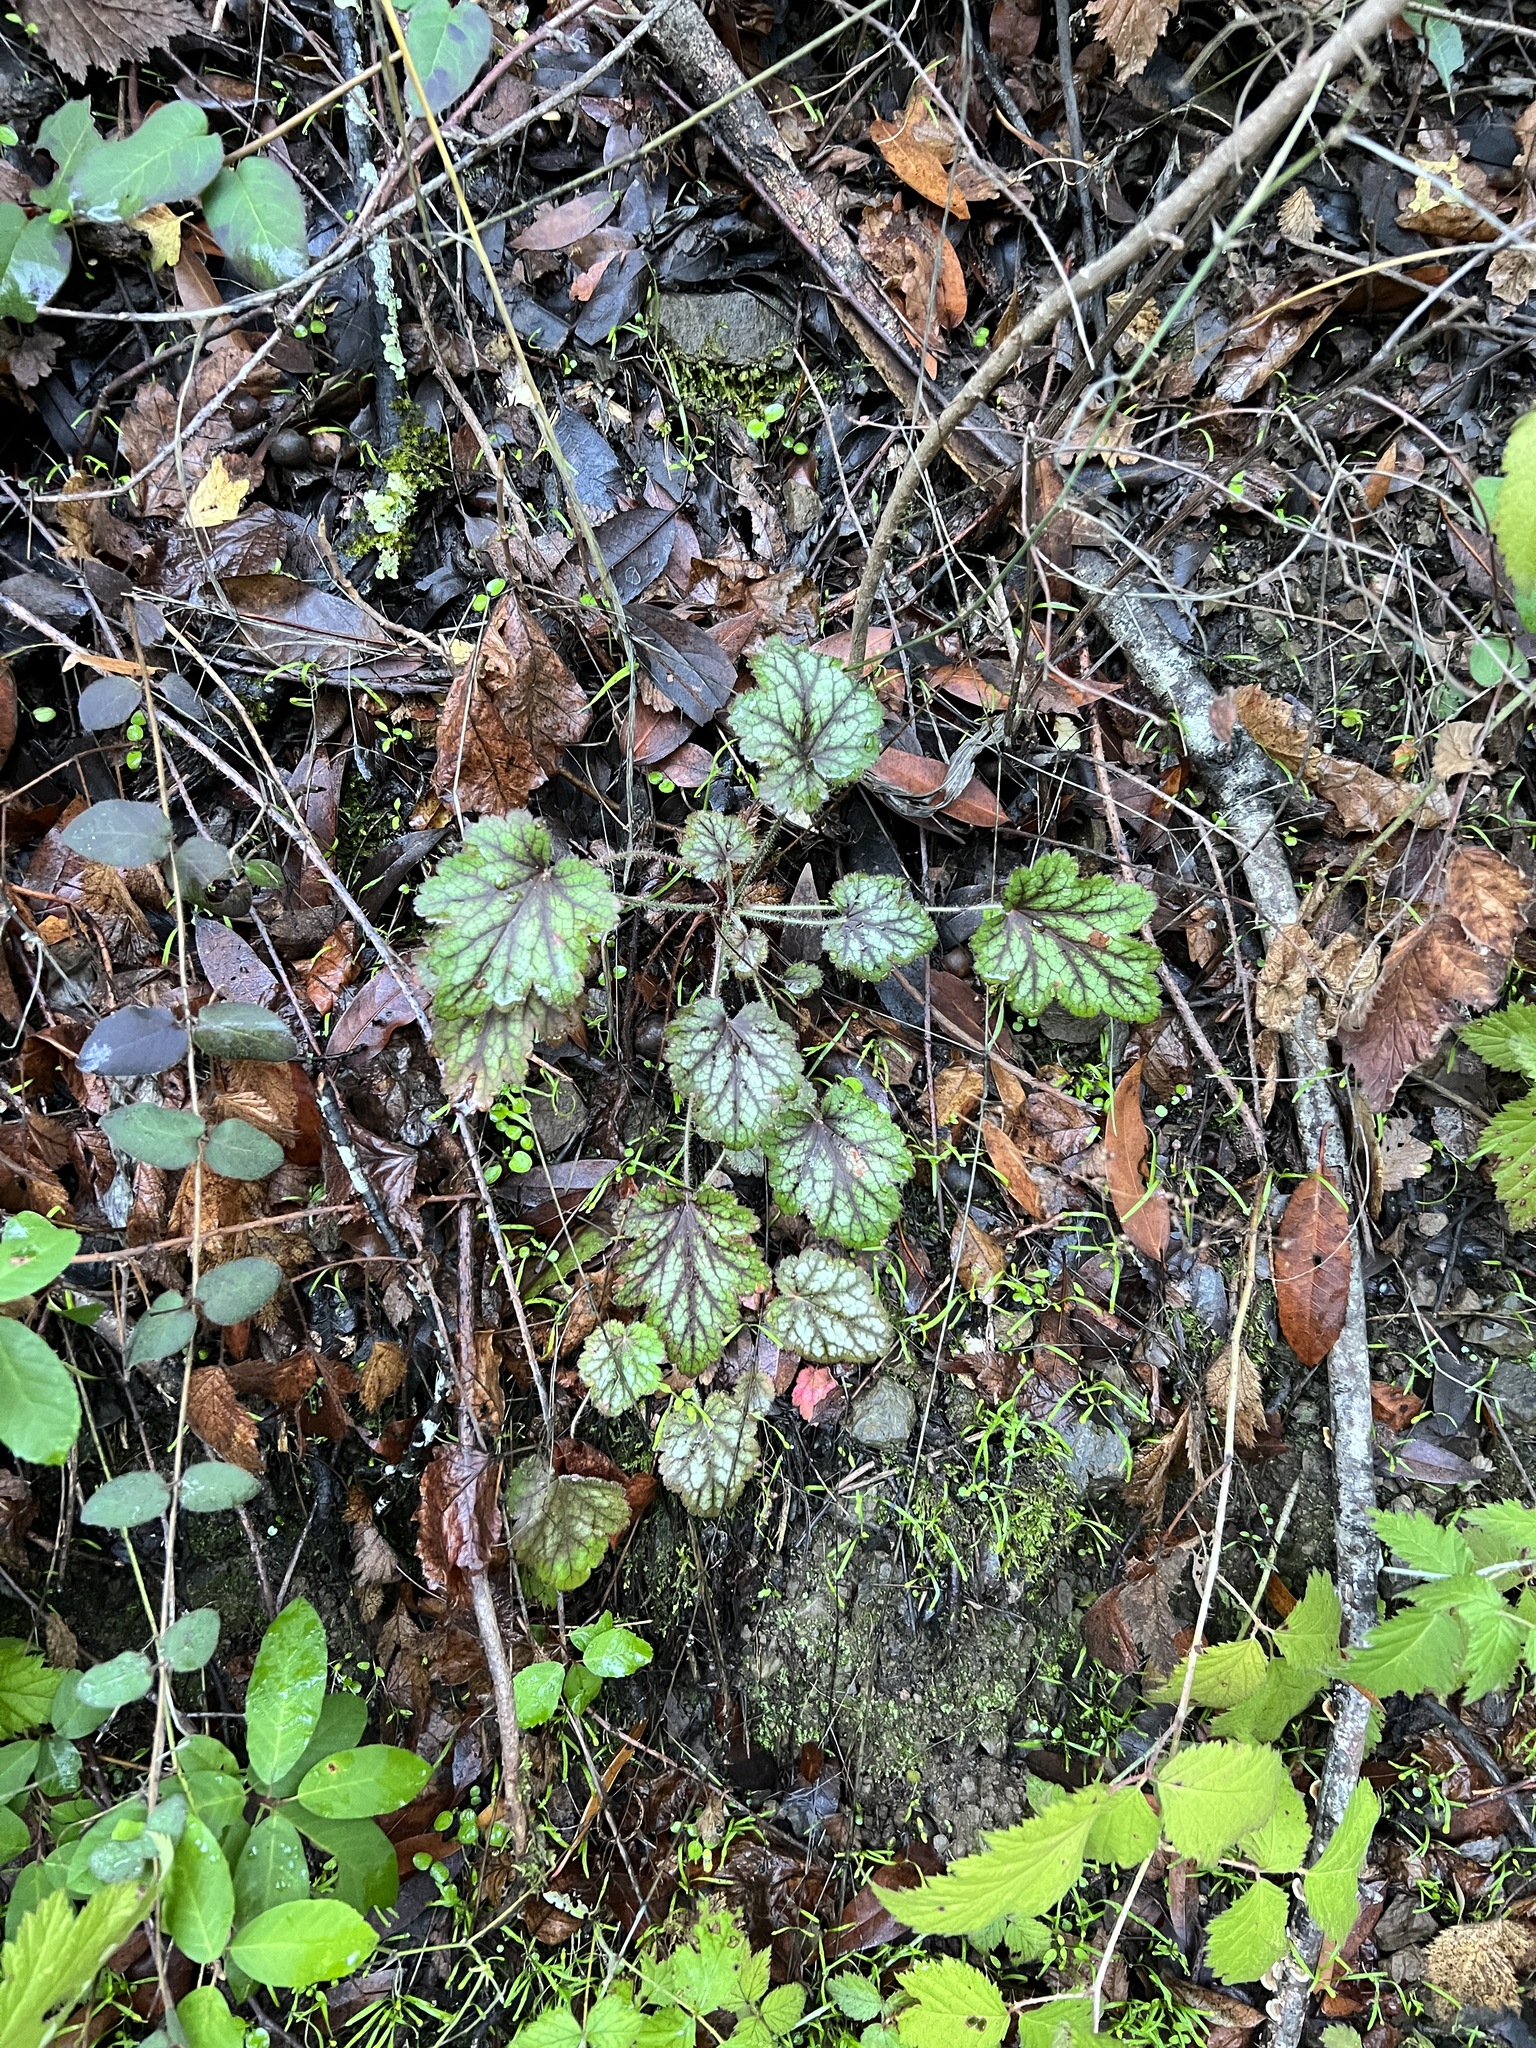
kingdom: Plantae
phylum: Tracheophyta
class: Magnoliopsida
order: Saxifragales
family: Saxifragaceae
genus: Heuchera
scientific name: Heuchera micrantha
